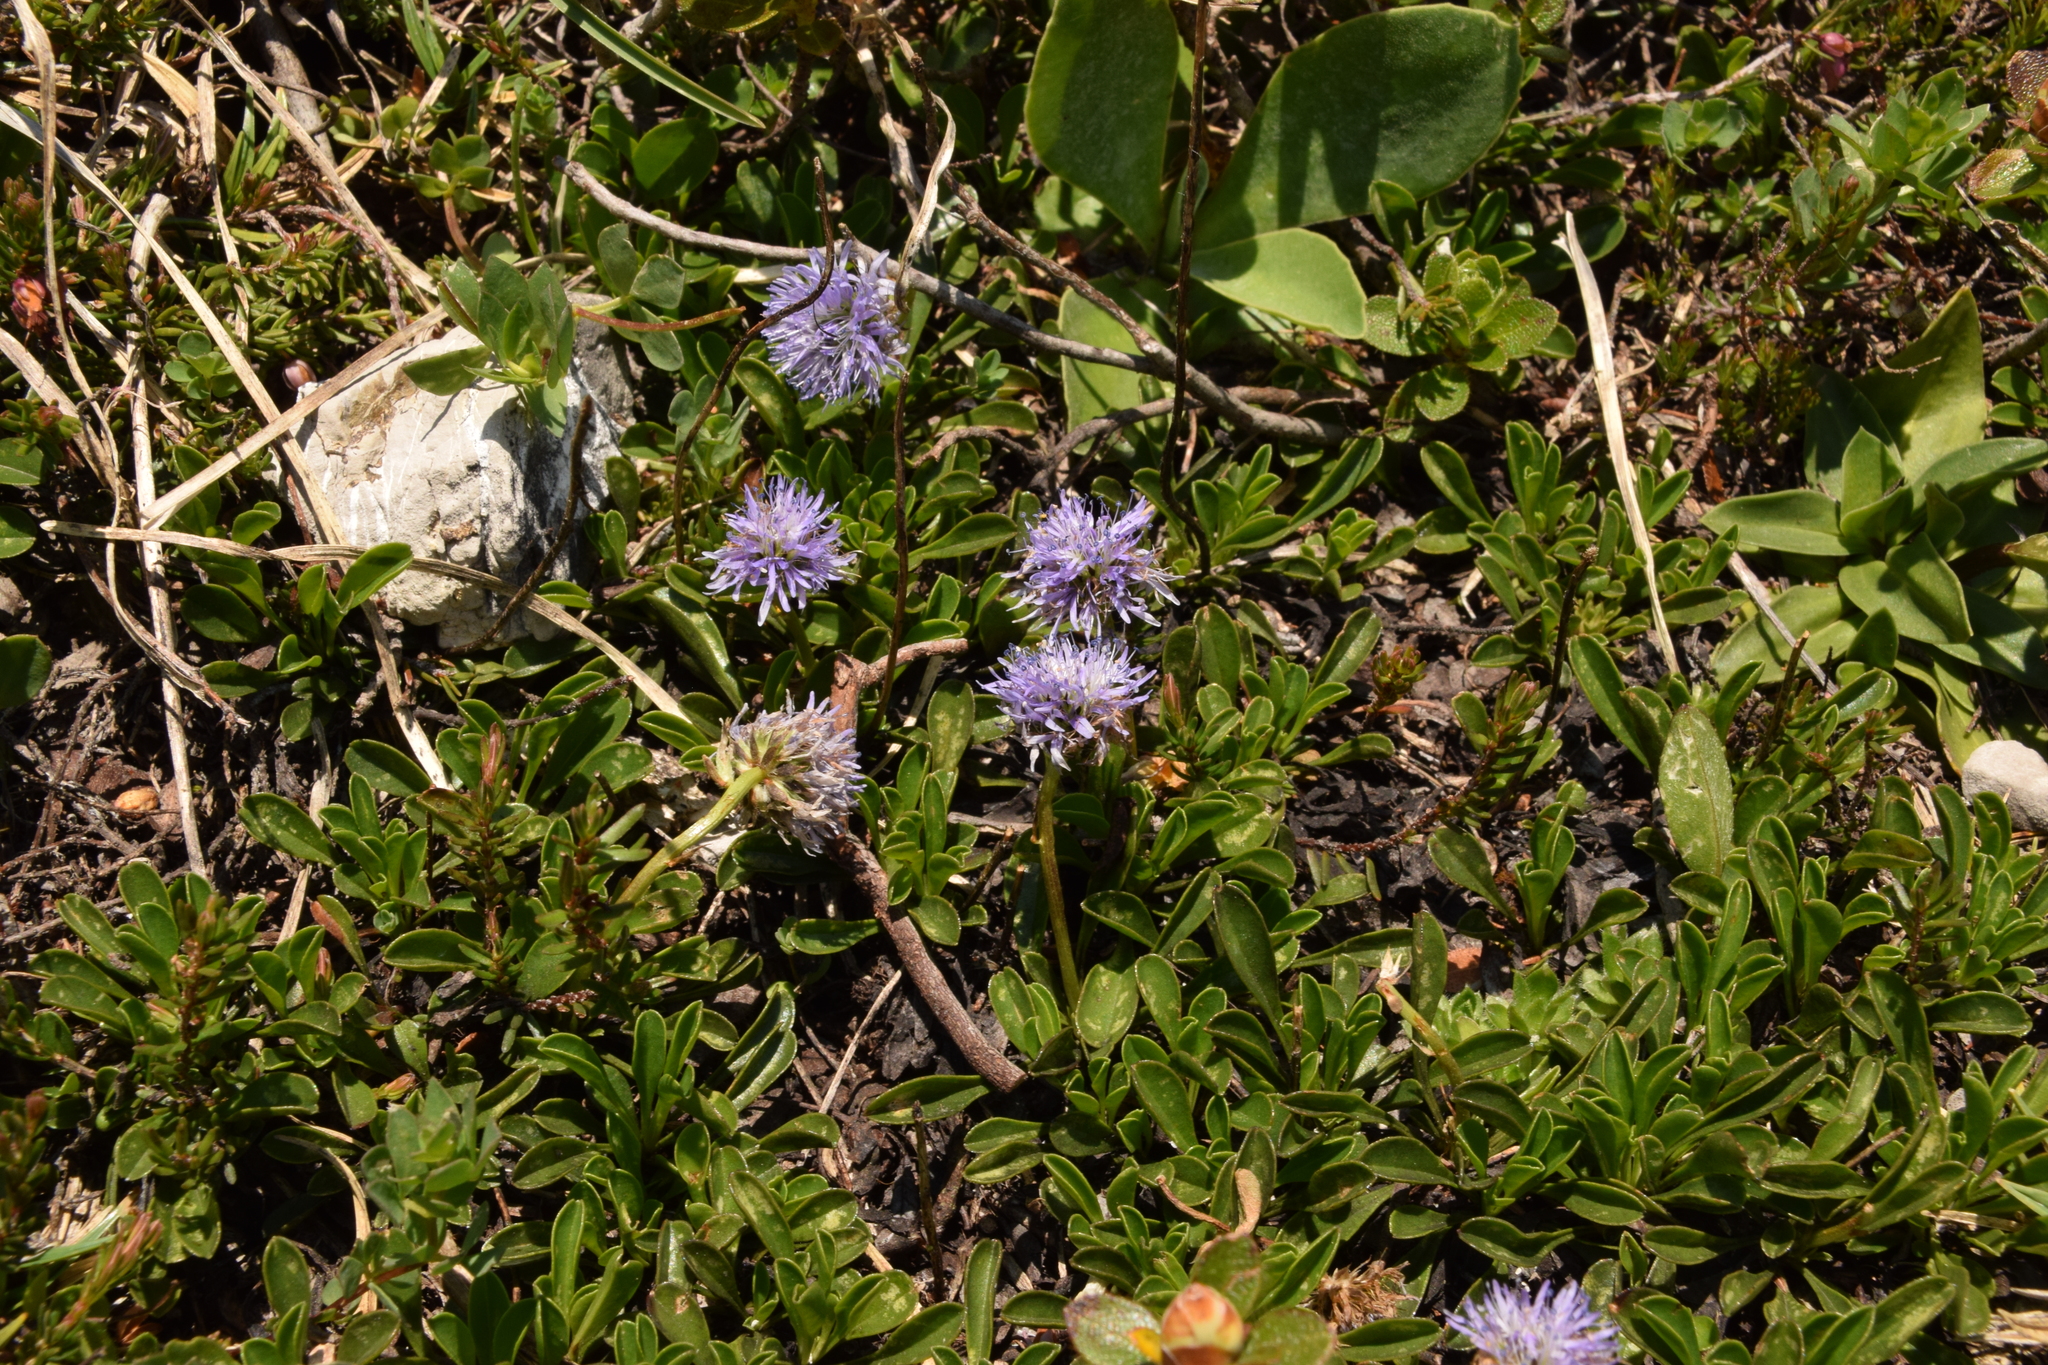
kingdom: Plantae
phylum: Tracheophyta
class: Magnoliopsida
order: Lamiales
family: Plantaginaceae
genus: Globularia
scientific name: Globularia cordifolia
